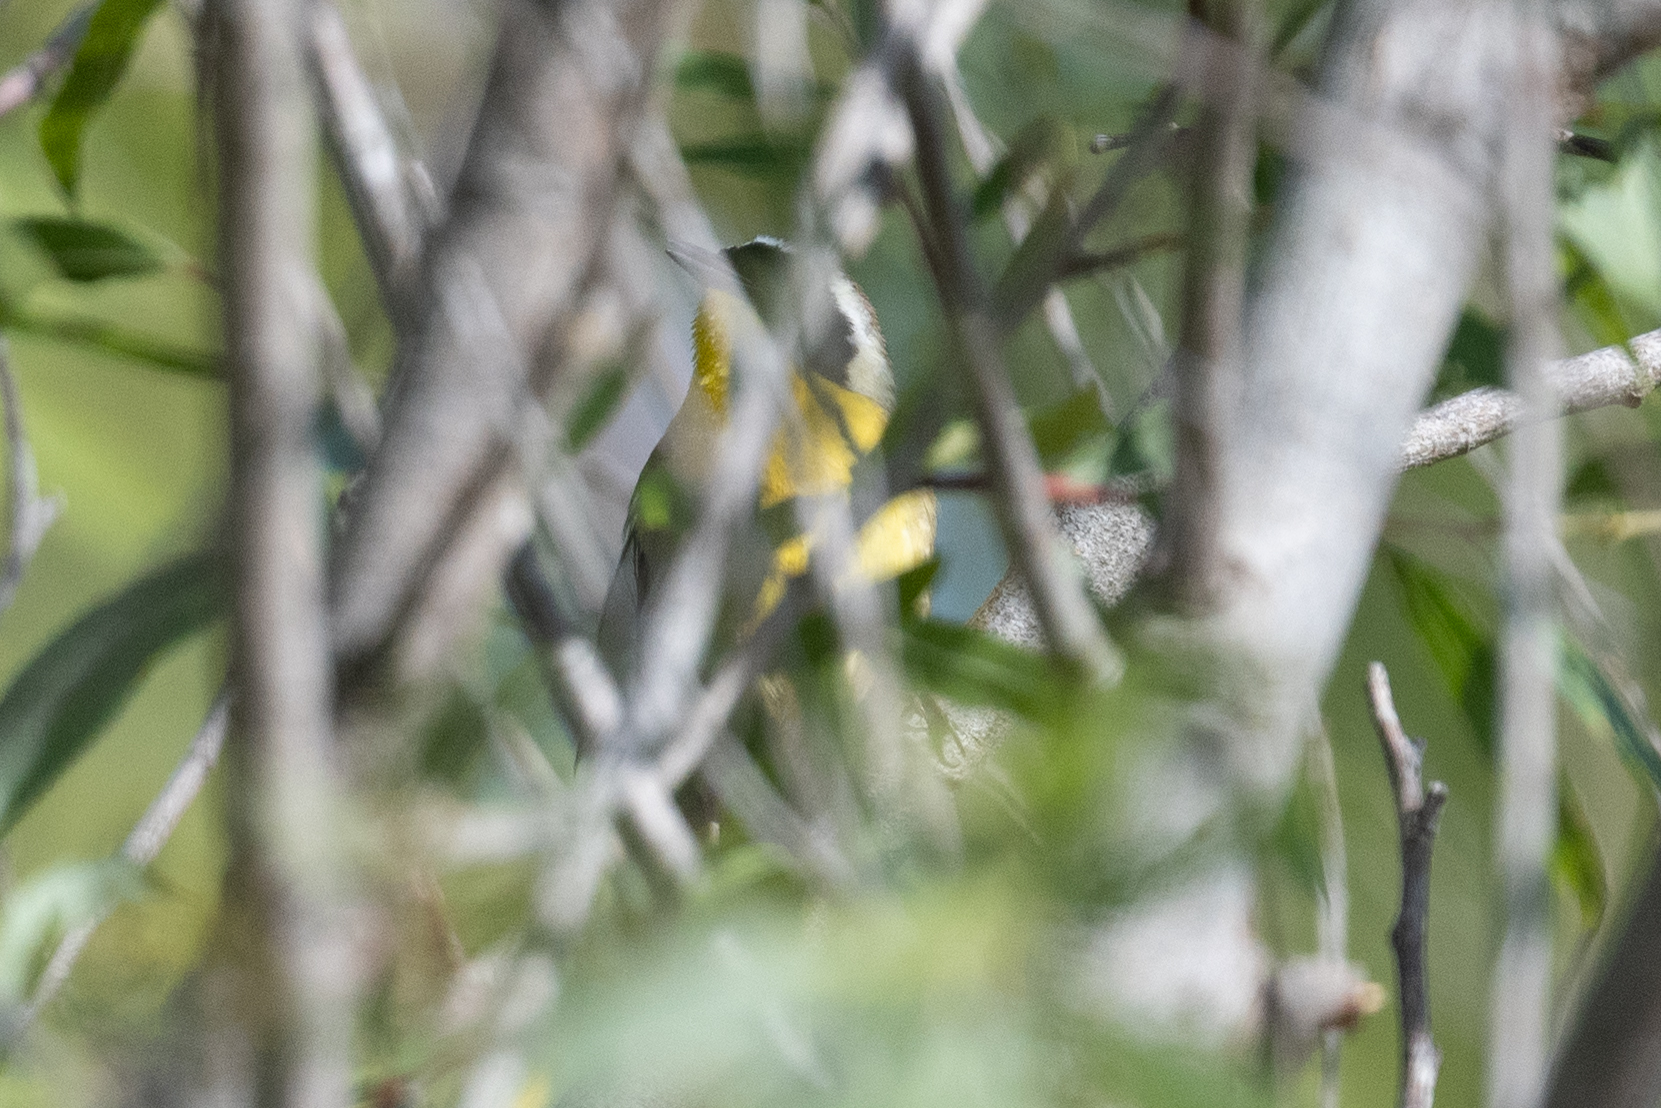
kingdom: Animalia
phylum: Chordata
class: Aves
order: Passeriformes
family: Parulidae
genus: Geothlypis
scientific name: Geothlypis trichas
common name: Common yellowthroat
